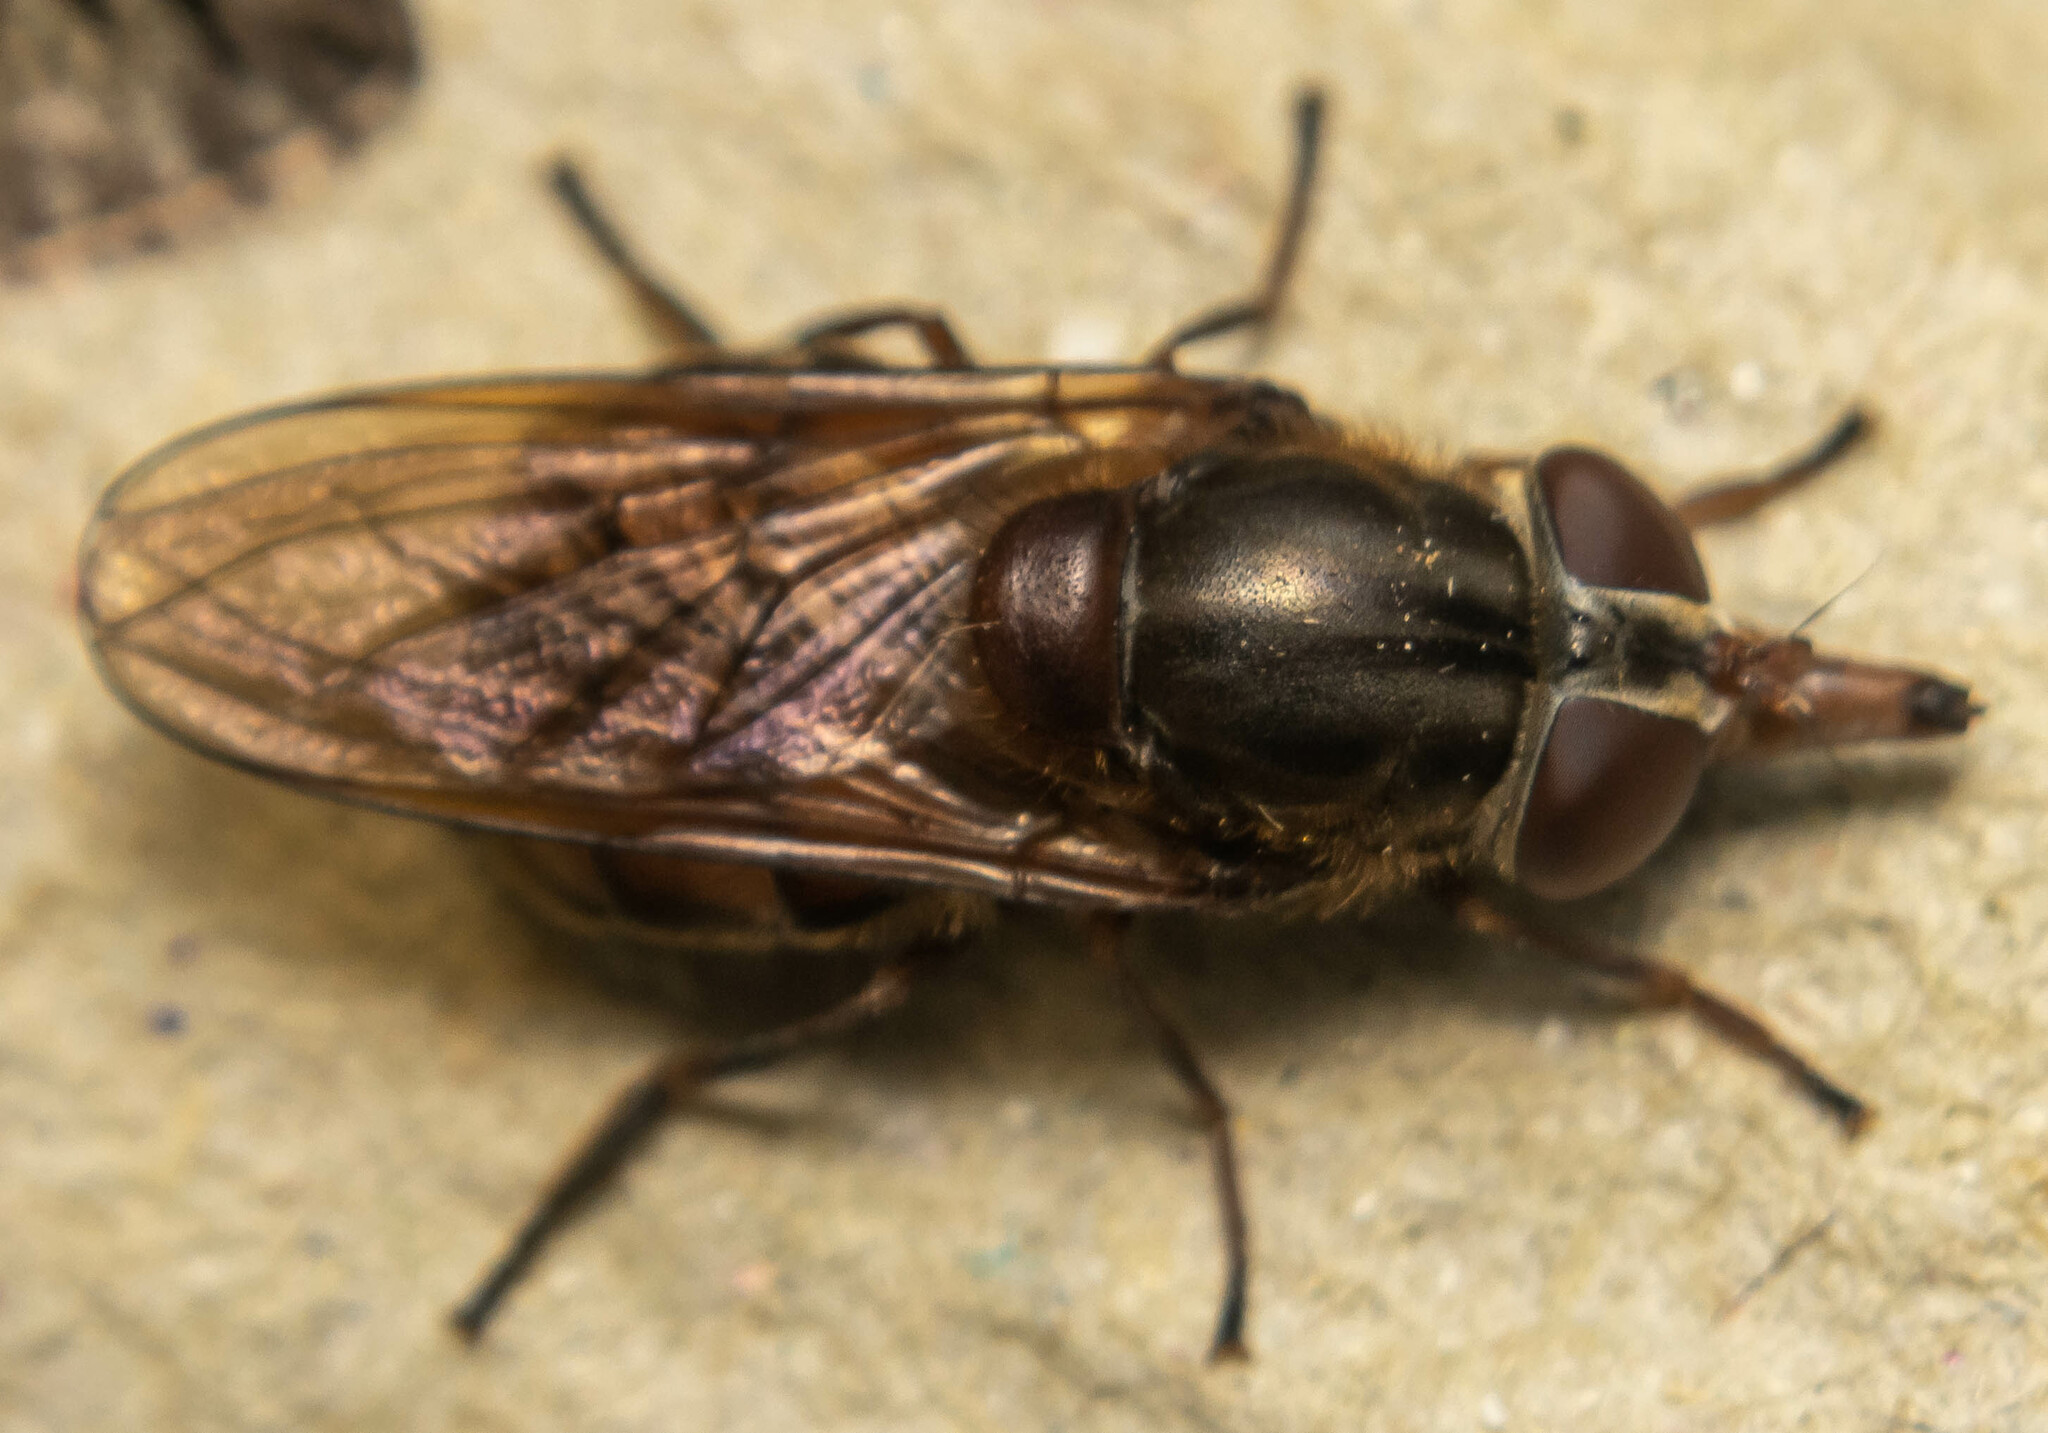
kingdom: Animalia
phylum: Arthropoda
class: Insecta
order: Diptera
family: Syrphidae
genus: Rhingia
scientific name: Rhingia campestris
